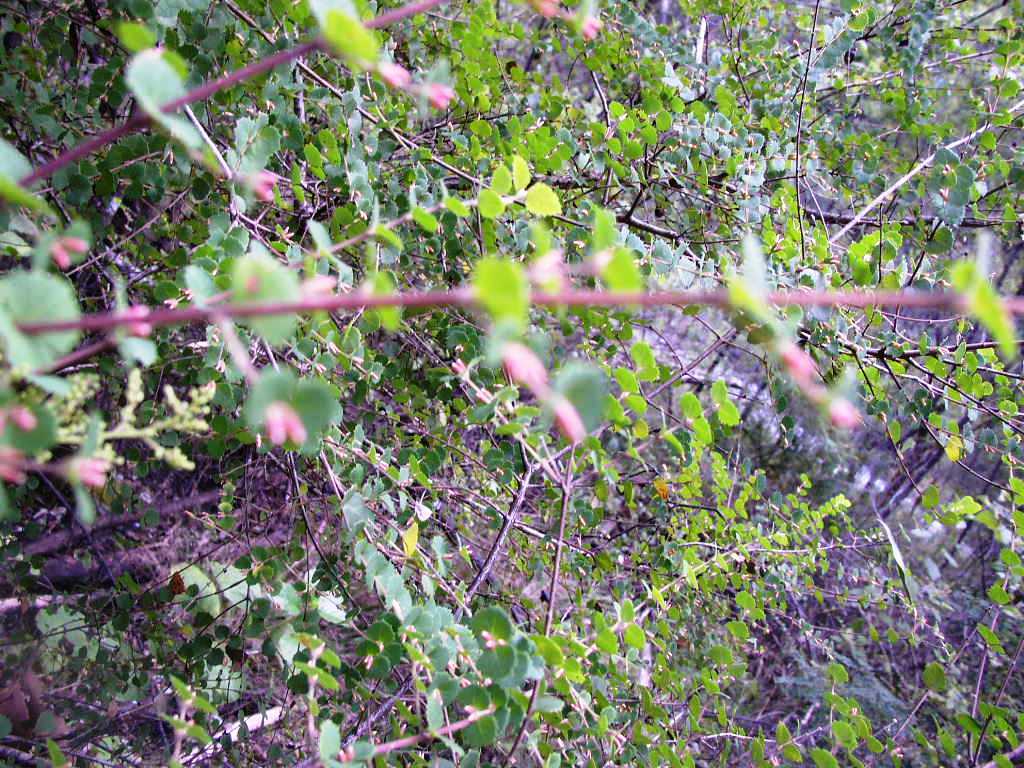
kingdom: Plantae
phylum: Tracheophyta
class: Magnoliopsida
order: Fabales
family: Fabaceae
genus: Bossiaea
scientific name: Bossiaea aquifolium
